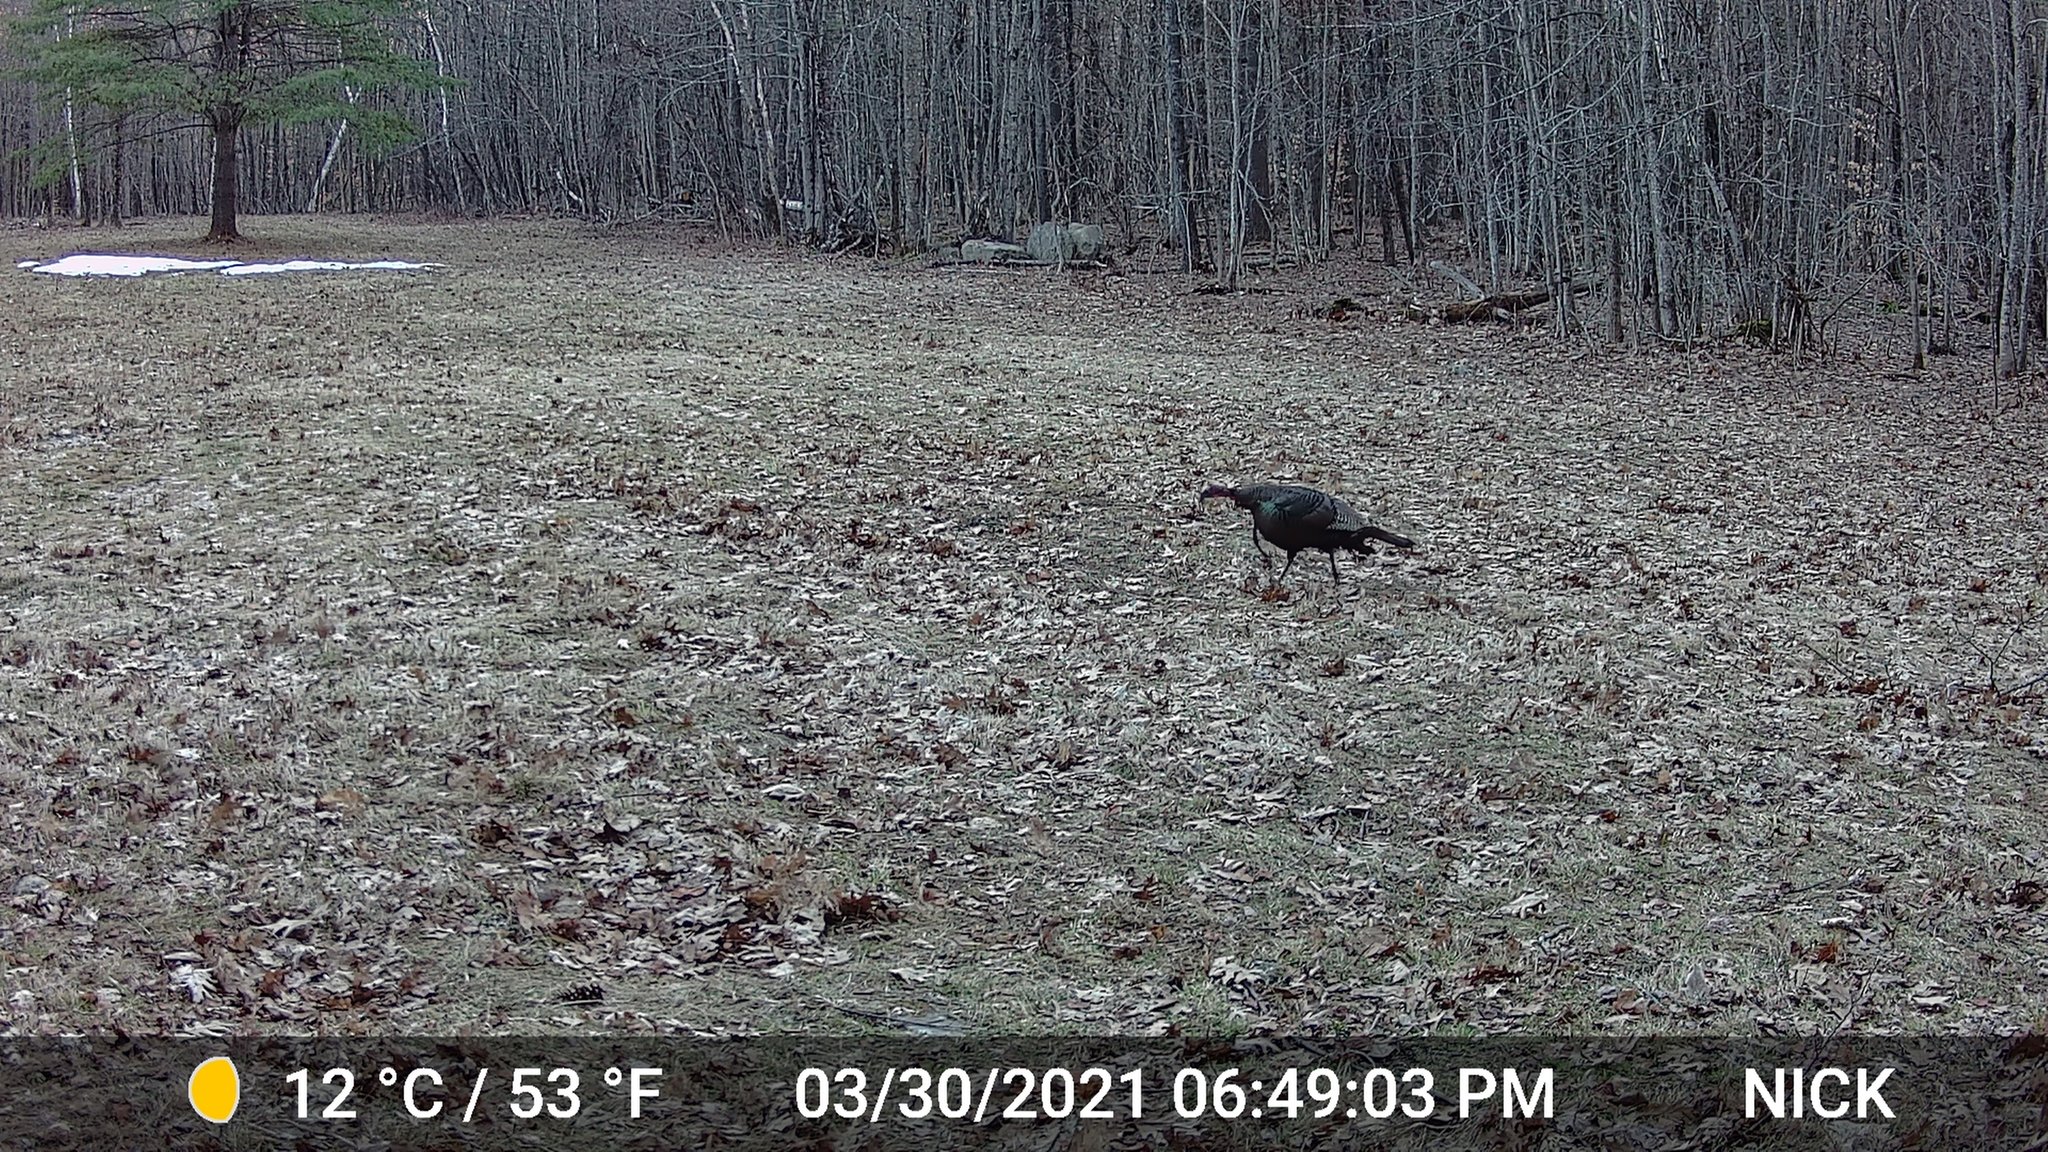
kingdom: Animalia
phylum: Chordata
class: Aves
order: Galliformes
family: Phasianidae
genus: Meleagris
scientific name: Meleagris gallopavo
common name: Wild turkey
